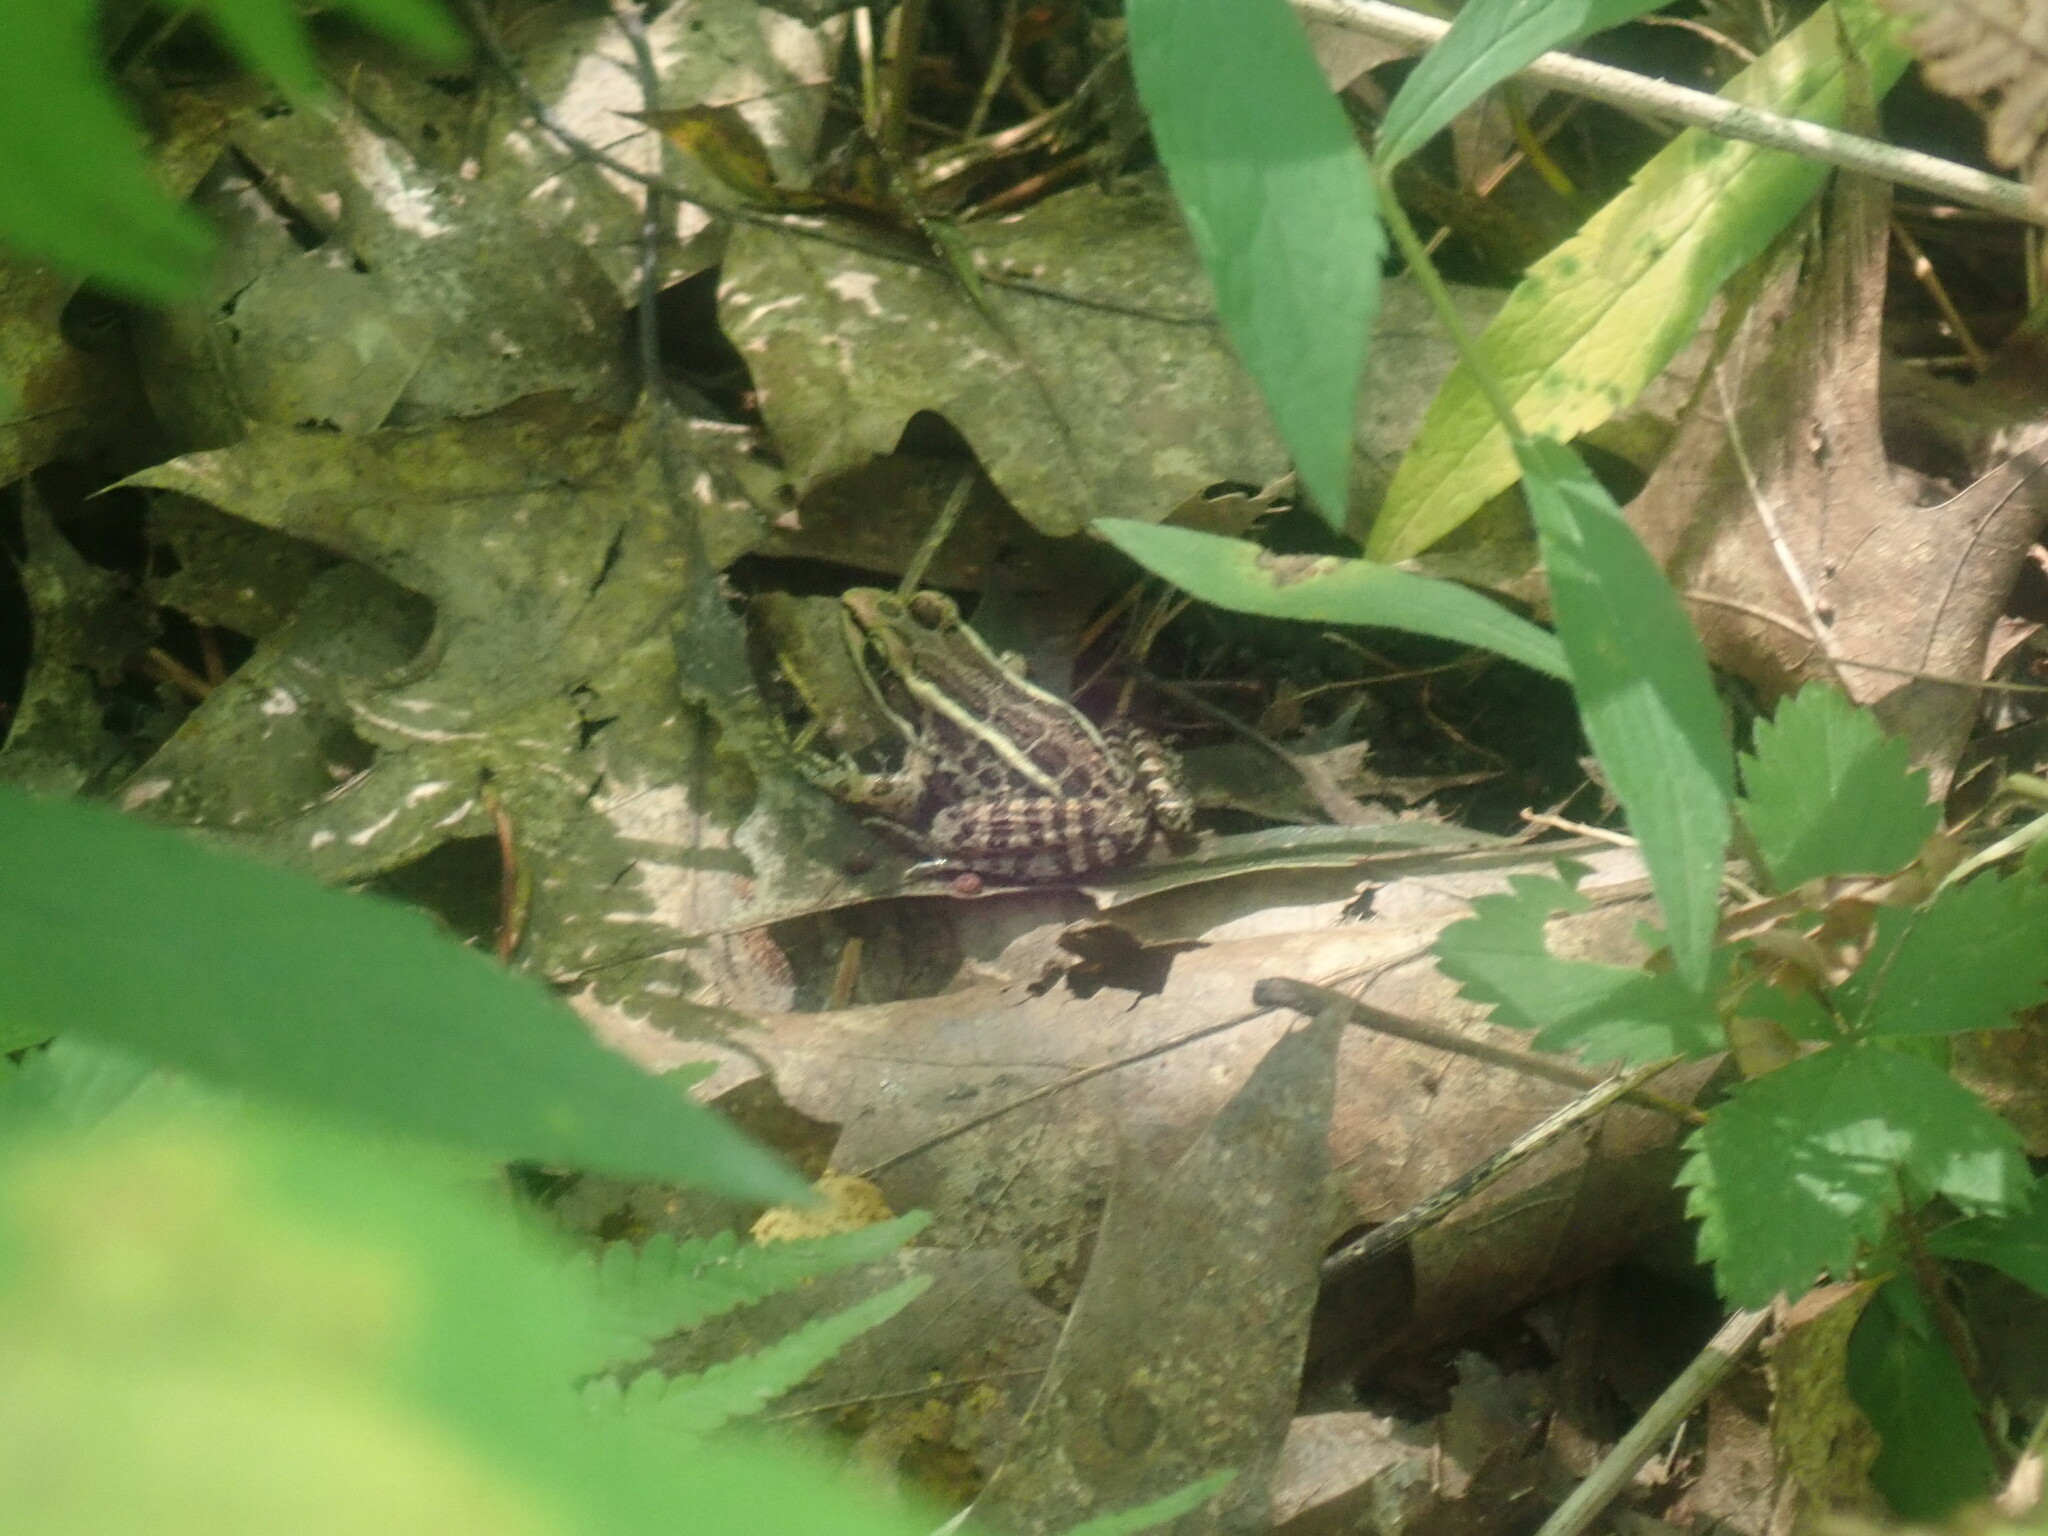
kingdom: Animalia
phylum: Chordata
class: Amphibia
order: Anura
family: Ranidae
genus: Lithobates
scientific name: Lithobates palustris
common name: Pickerel frog
